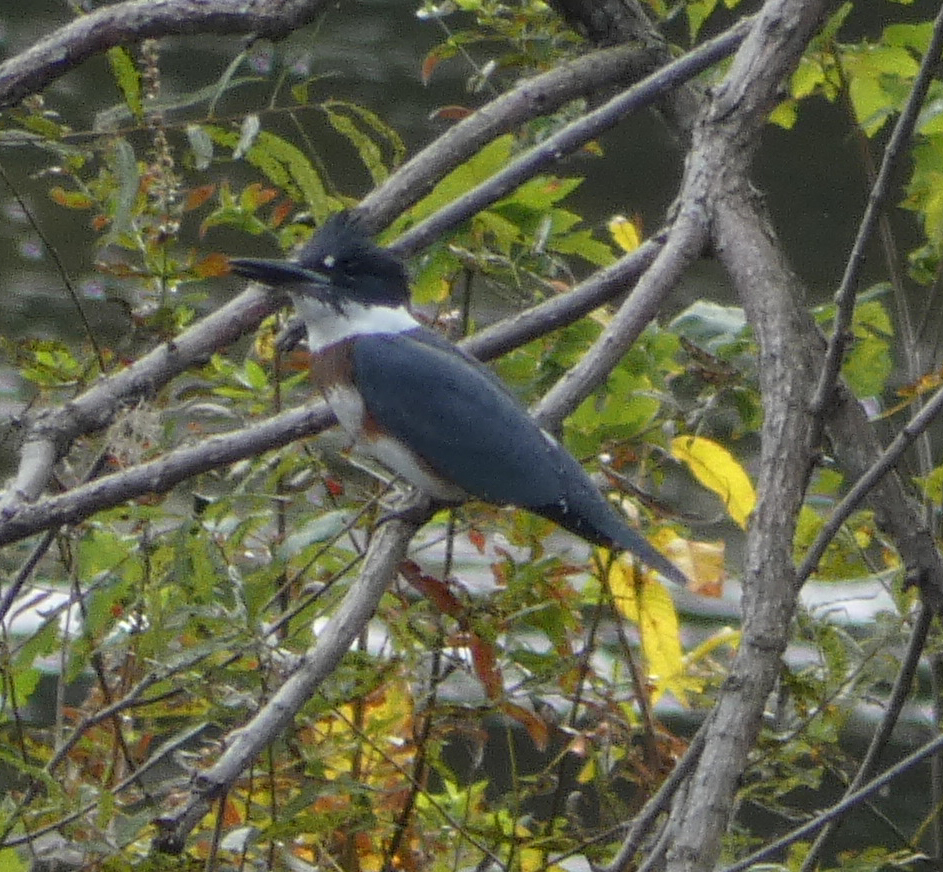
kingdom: Animalia
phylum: Chordata
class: Aves
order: Coraciiformes
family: Alcedinidae
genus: Megaceryle
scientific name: Megaceryle alcyon
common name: Belted kingfisher
